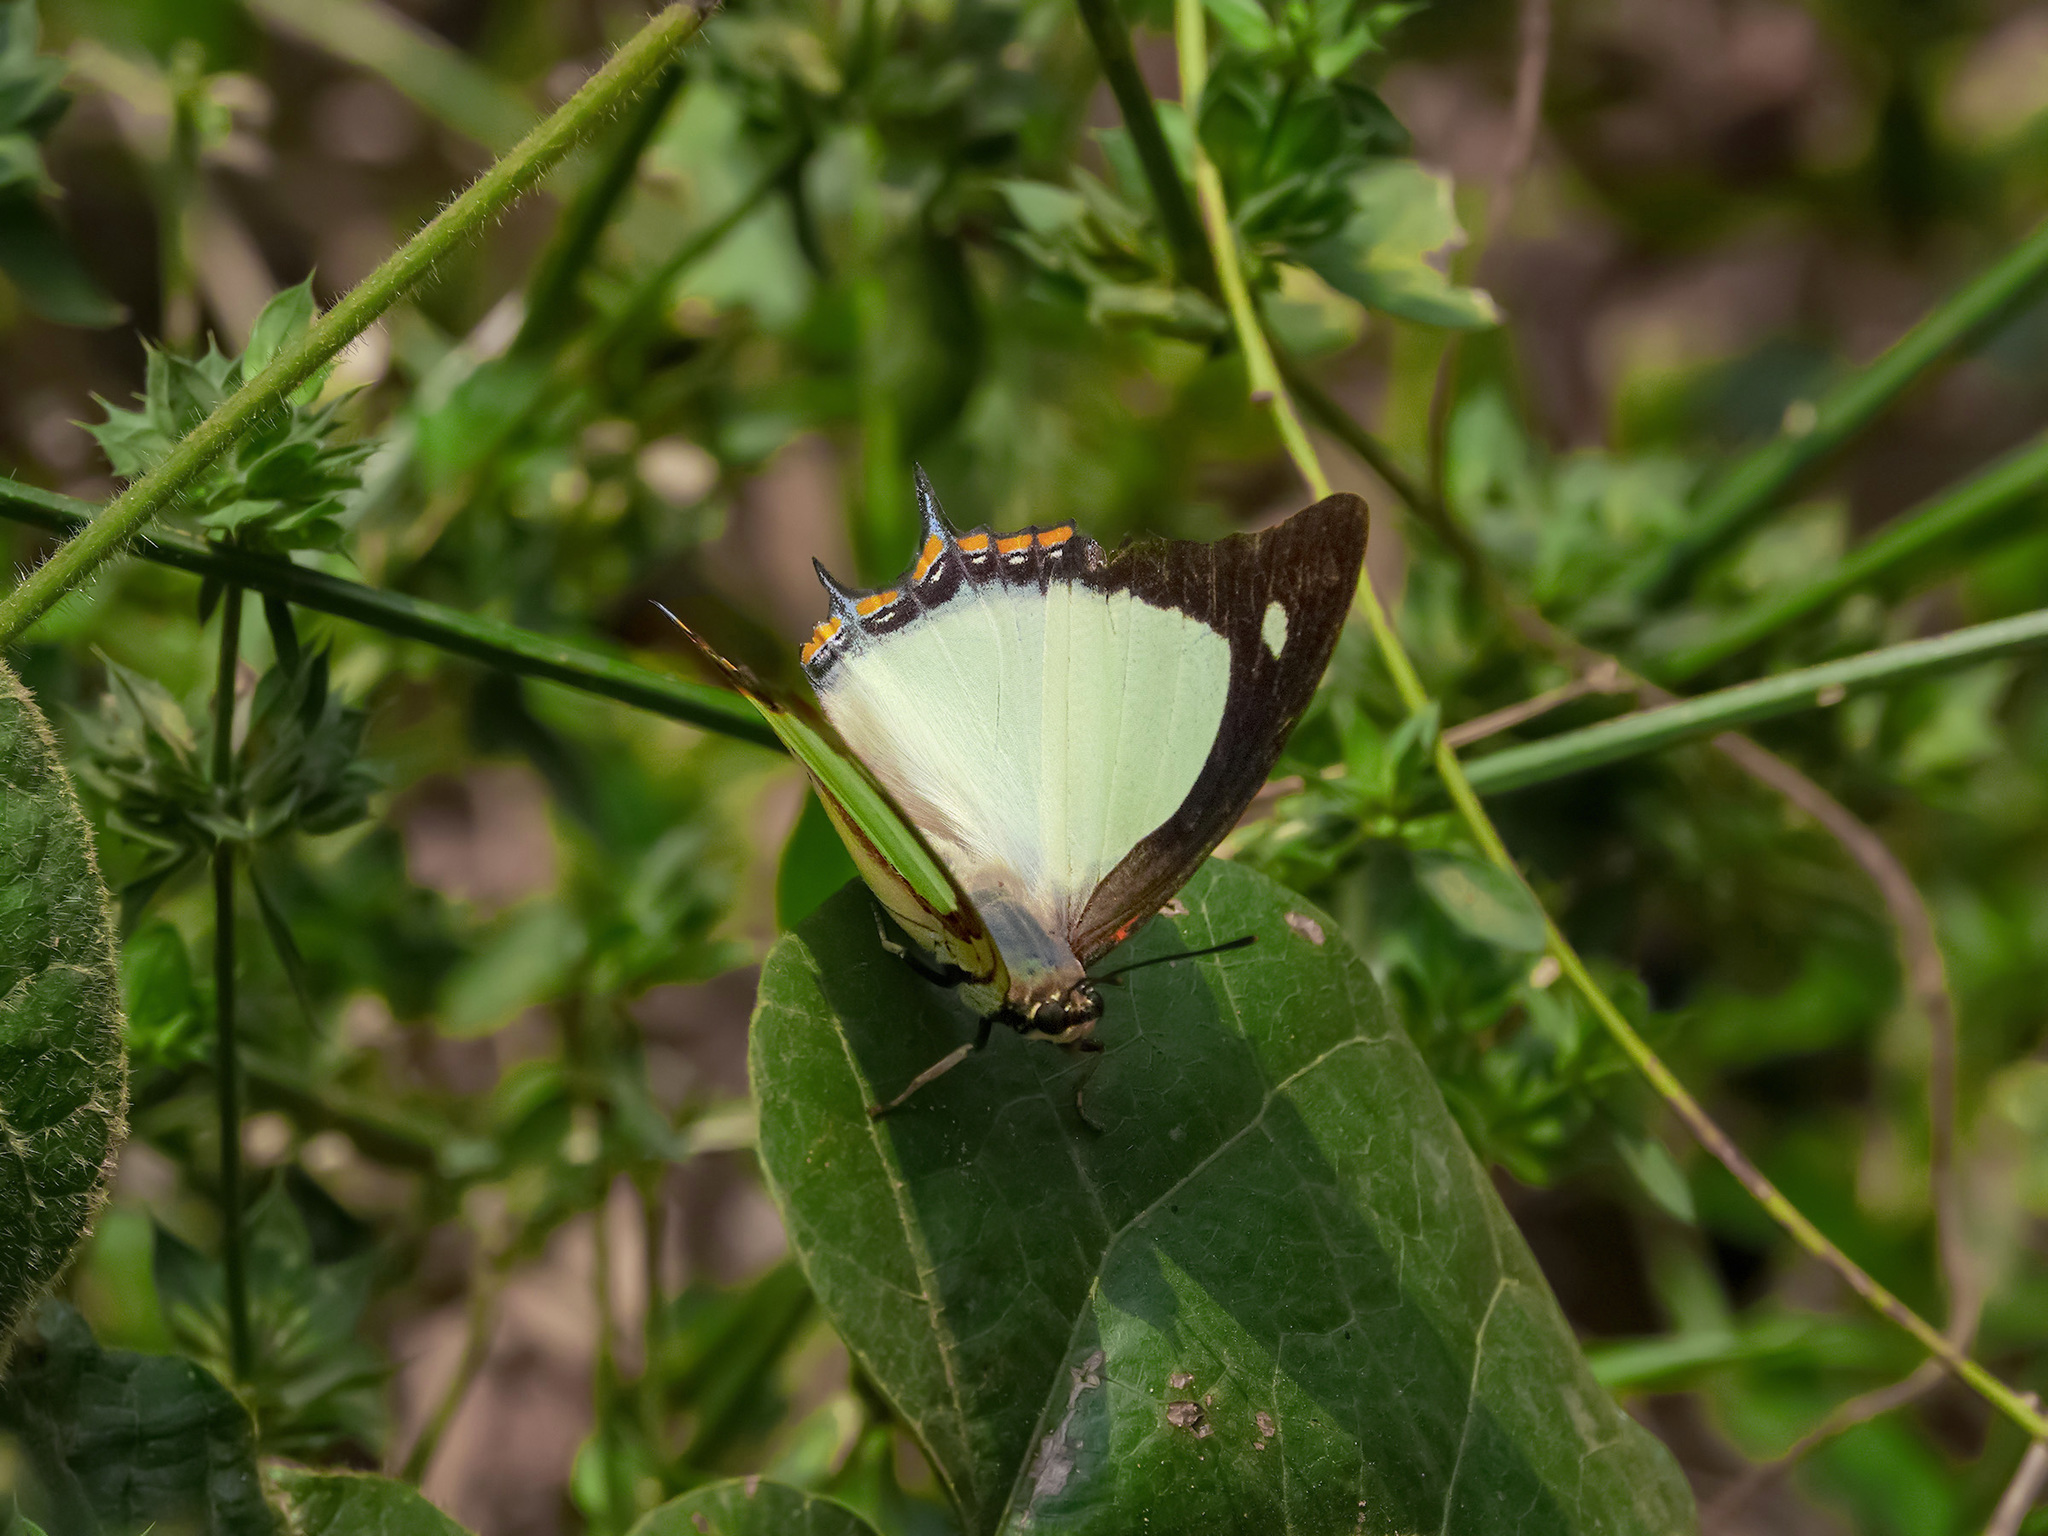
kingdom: Animalia
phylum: Arthropoda
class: Insecta
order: Lepidoptera
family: Nymphalidae
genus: Polyura
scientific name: Polyura jalysus
